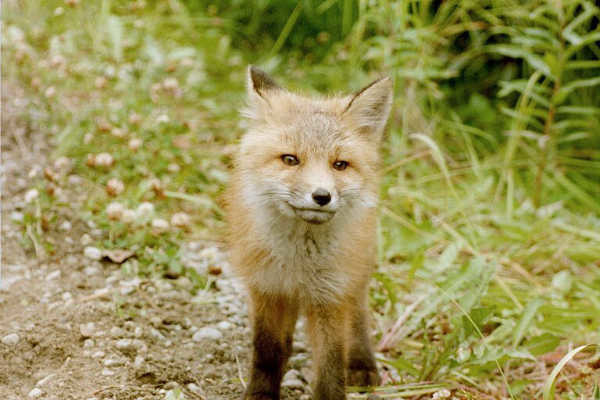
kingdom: Animalia
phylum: Chordata
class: Mammalia
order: Carnivora
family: Canidae
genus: Vulpes
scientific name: Vulpes vulpes
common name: Red fox
